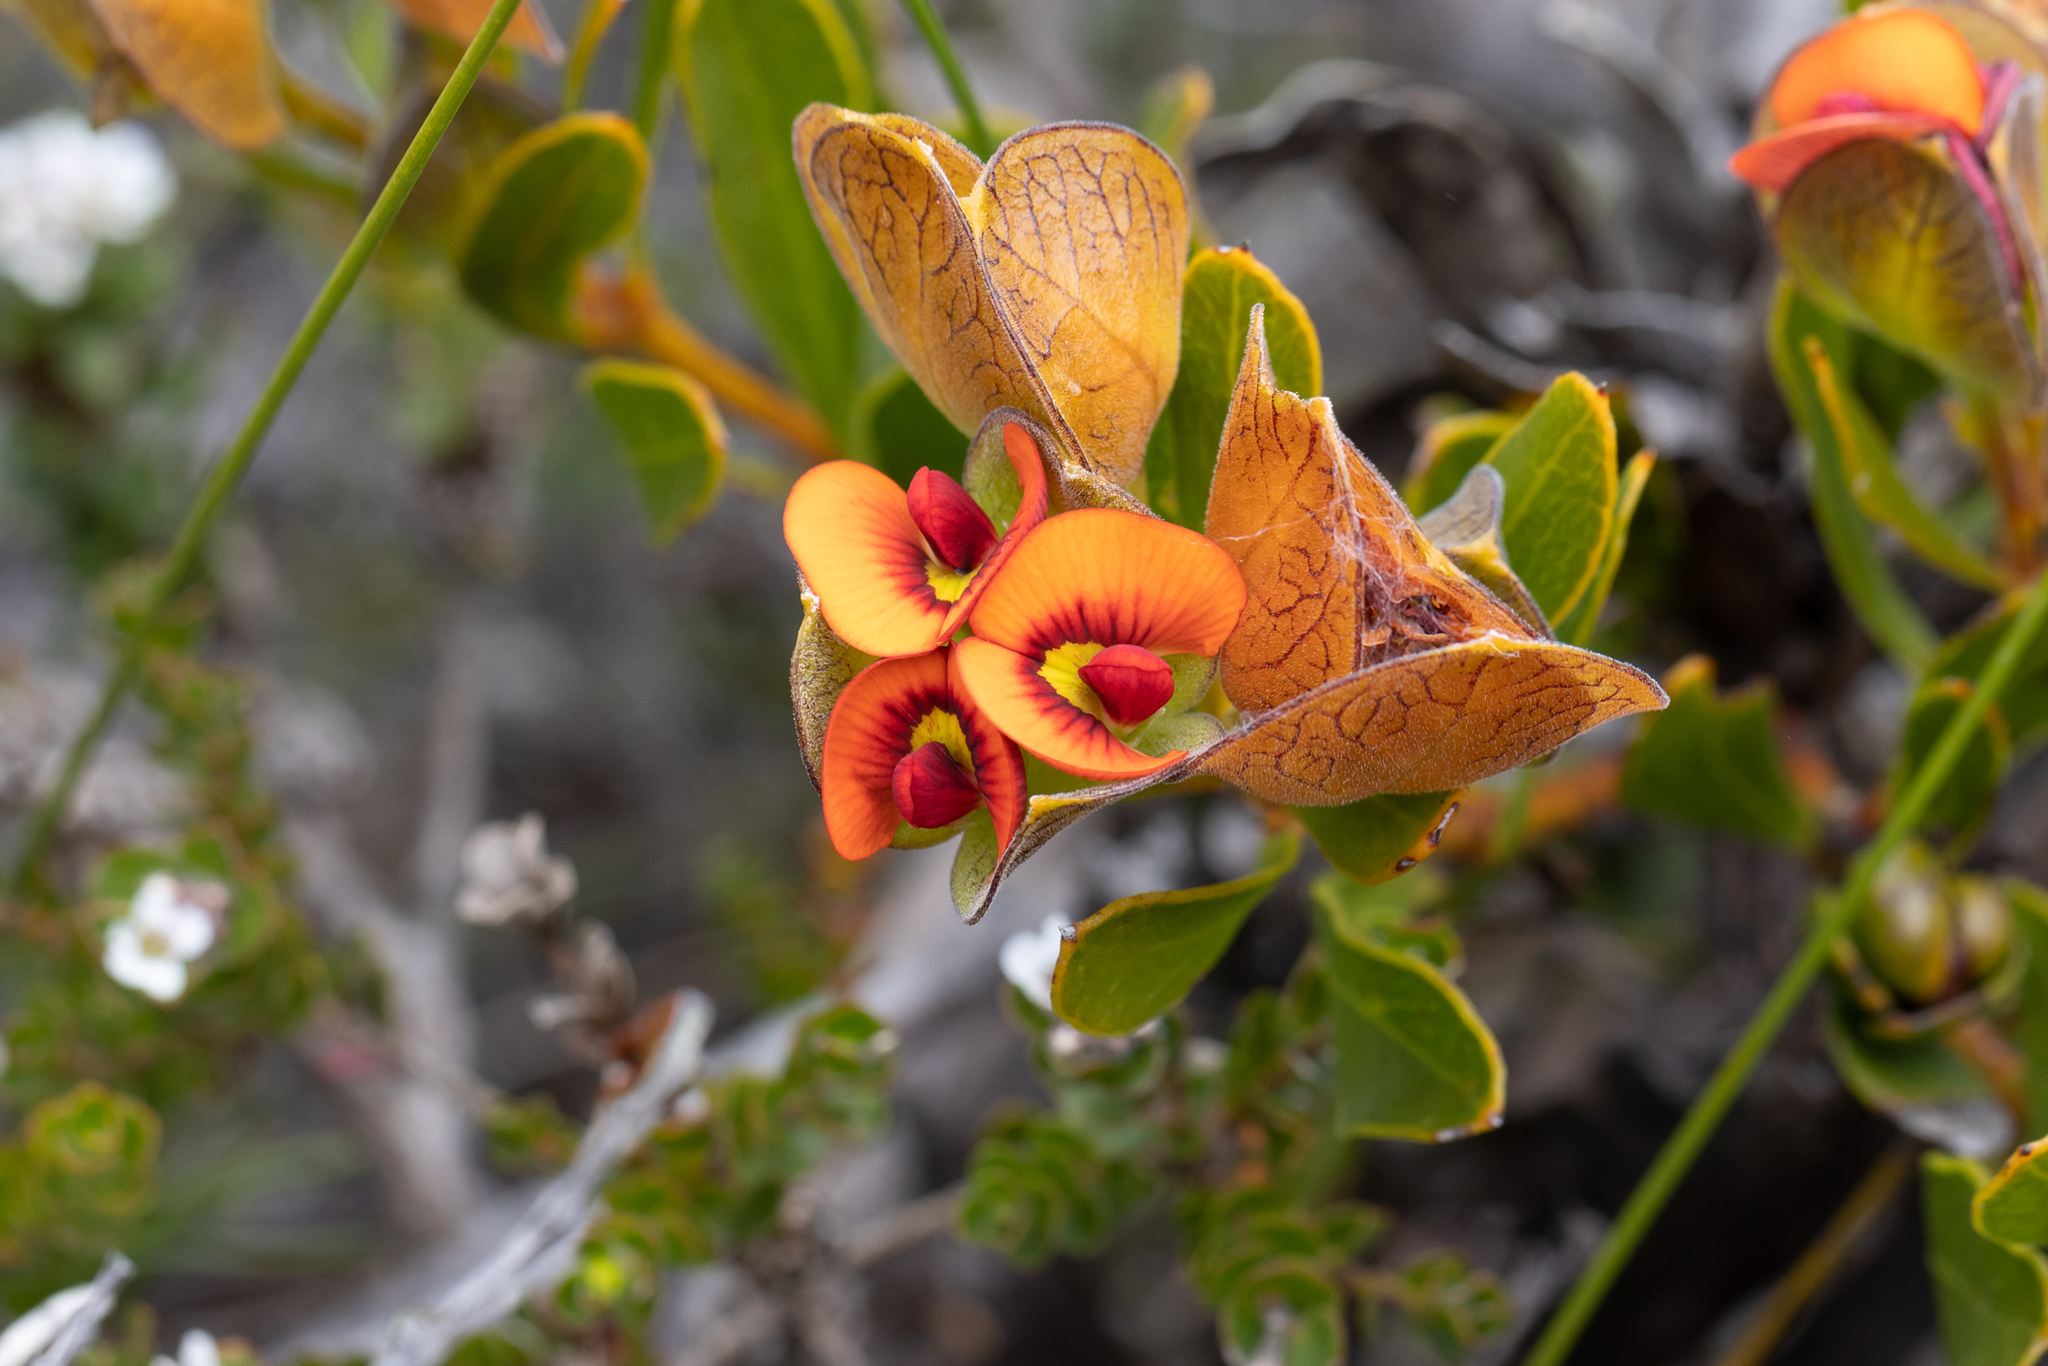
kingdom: Plantae
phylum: Tracheophyta
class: Magnoliopsida
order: Fabales
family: Fabaceae
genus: Daviesia
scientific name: Daviesia alternifolia
